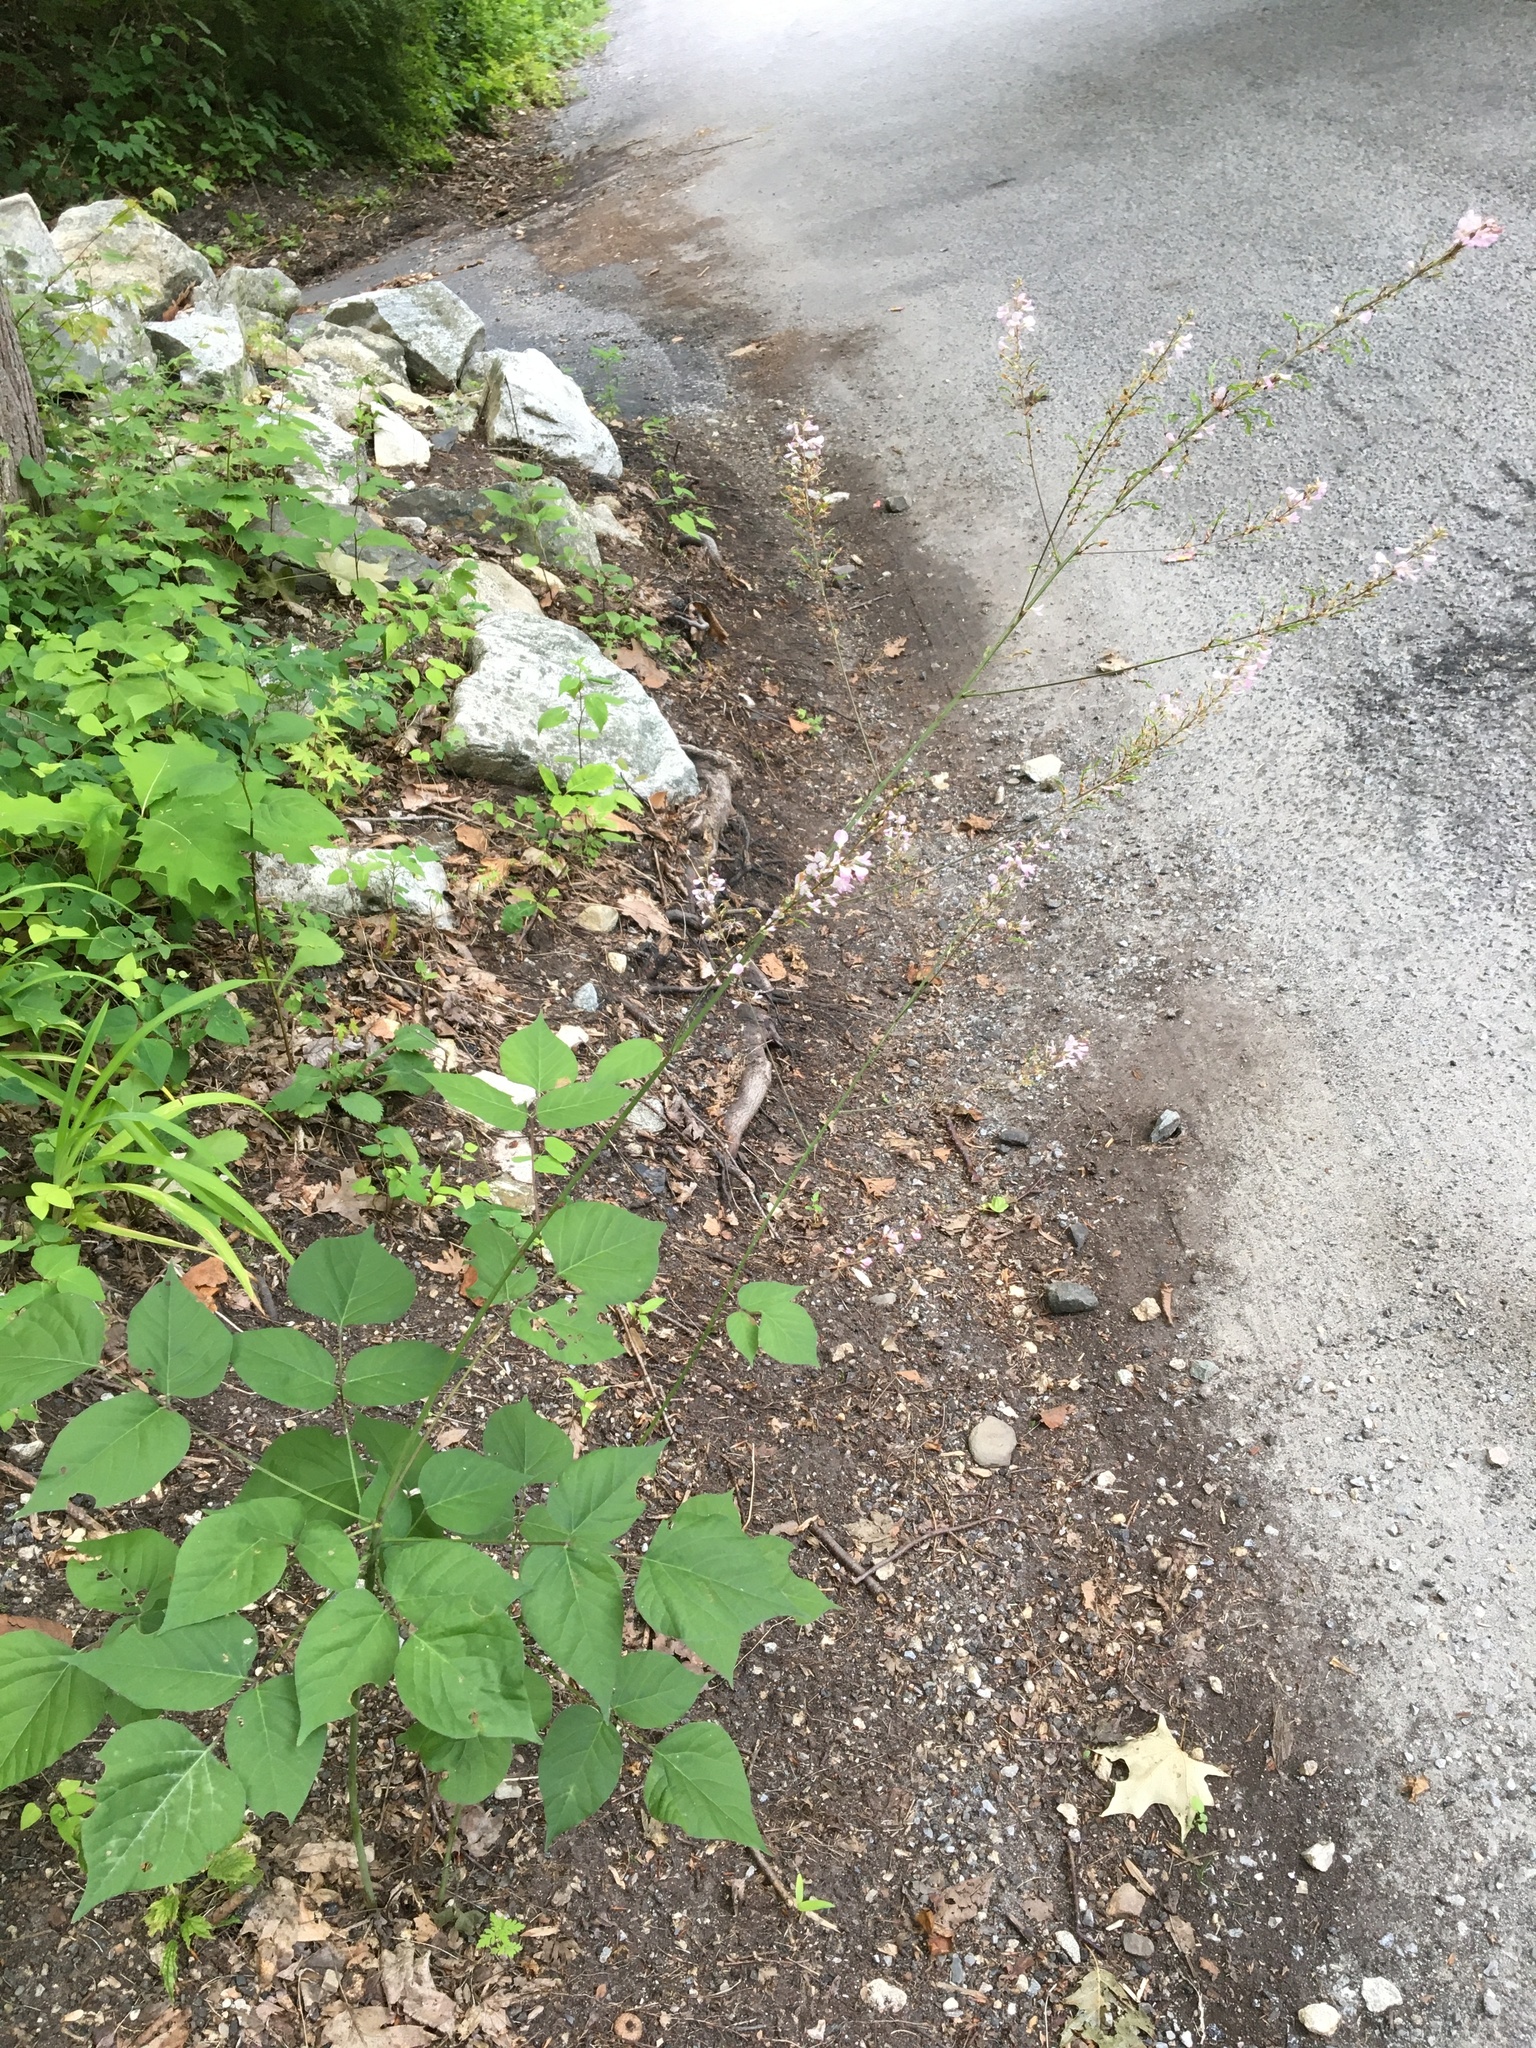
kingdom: Plantae
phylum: Tracheophyta
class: Magnoliopsida
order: Fabales
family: Fabaceae
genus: Hylodesmum
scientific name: Hylodesmum glutinosum
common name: Clustered-leaved tick-trefoil
